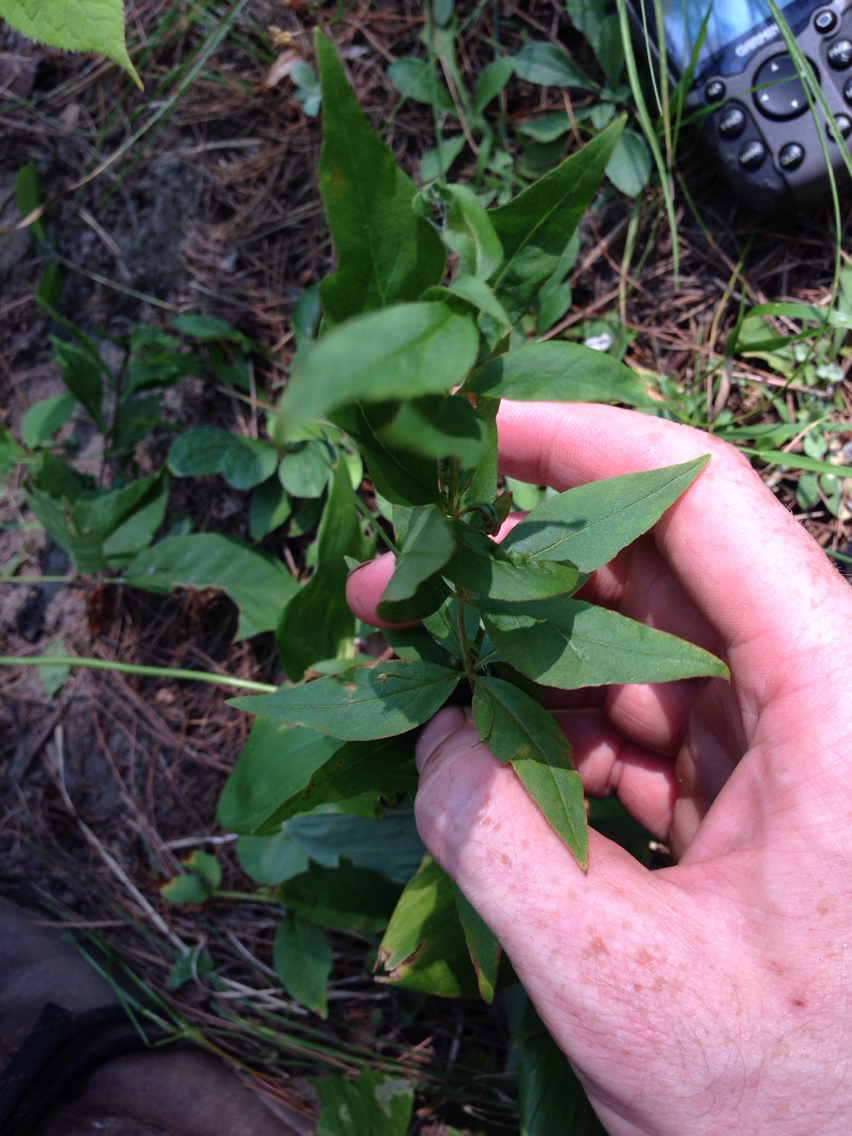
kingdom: Plantae
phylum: Tracheophyta
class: Magnoliopsida
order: Ericales
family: Primulaceae
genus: Lysimachia
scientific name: Lysimachia quadrifolia
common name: Whorled loosestrife
